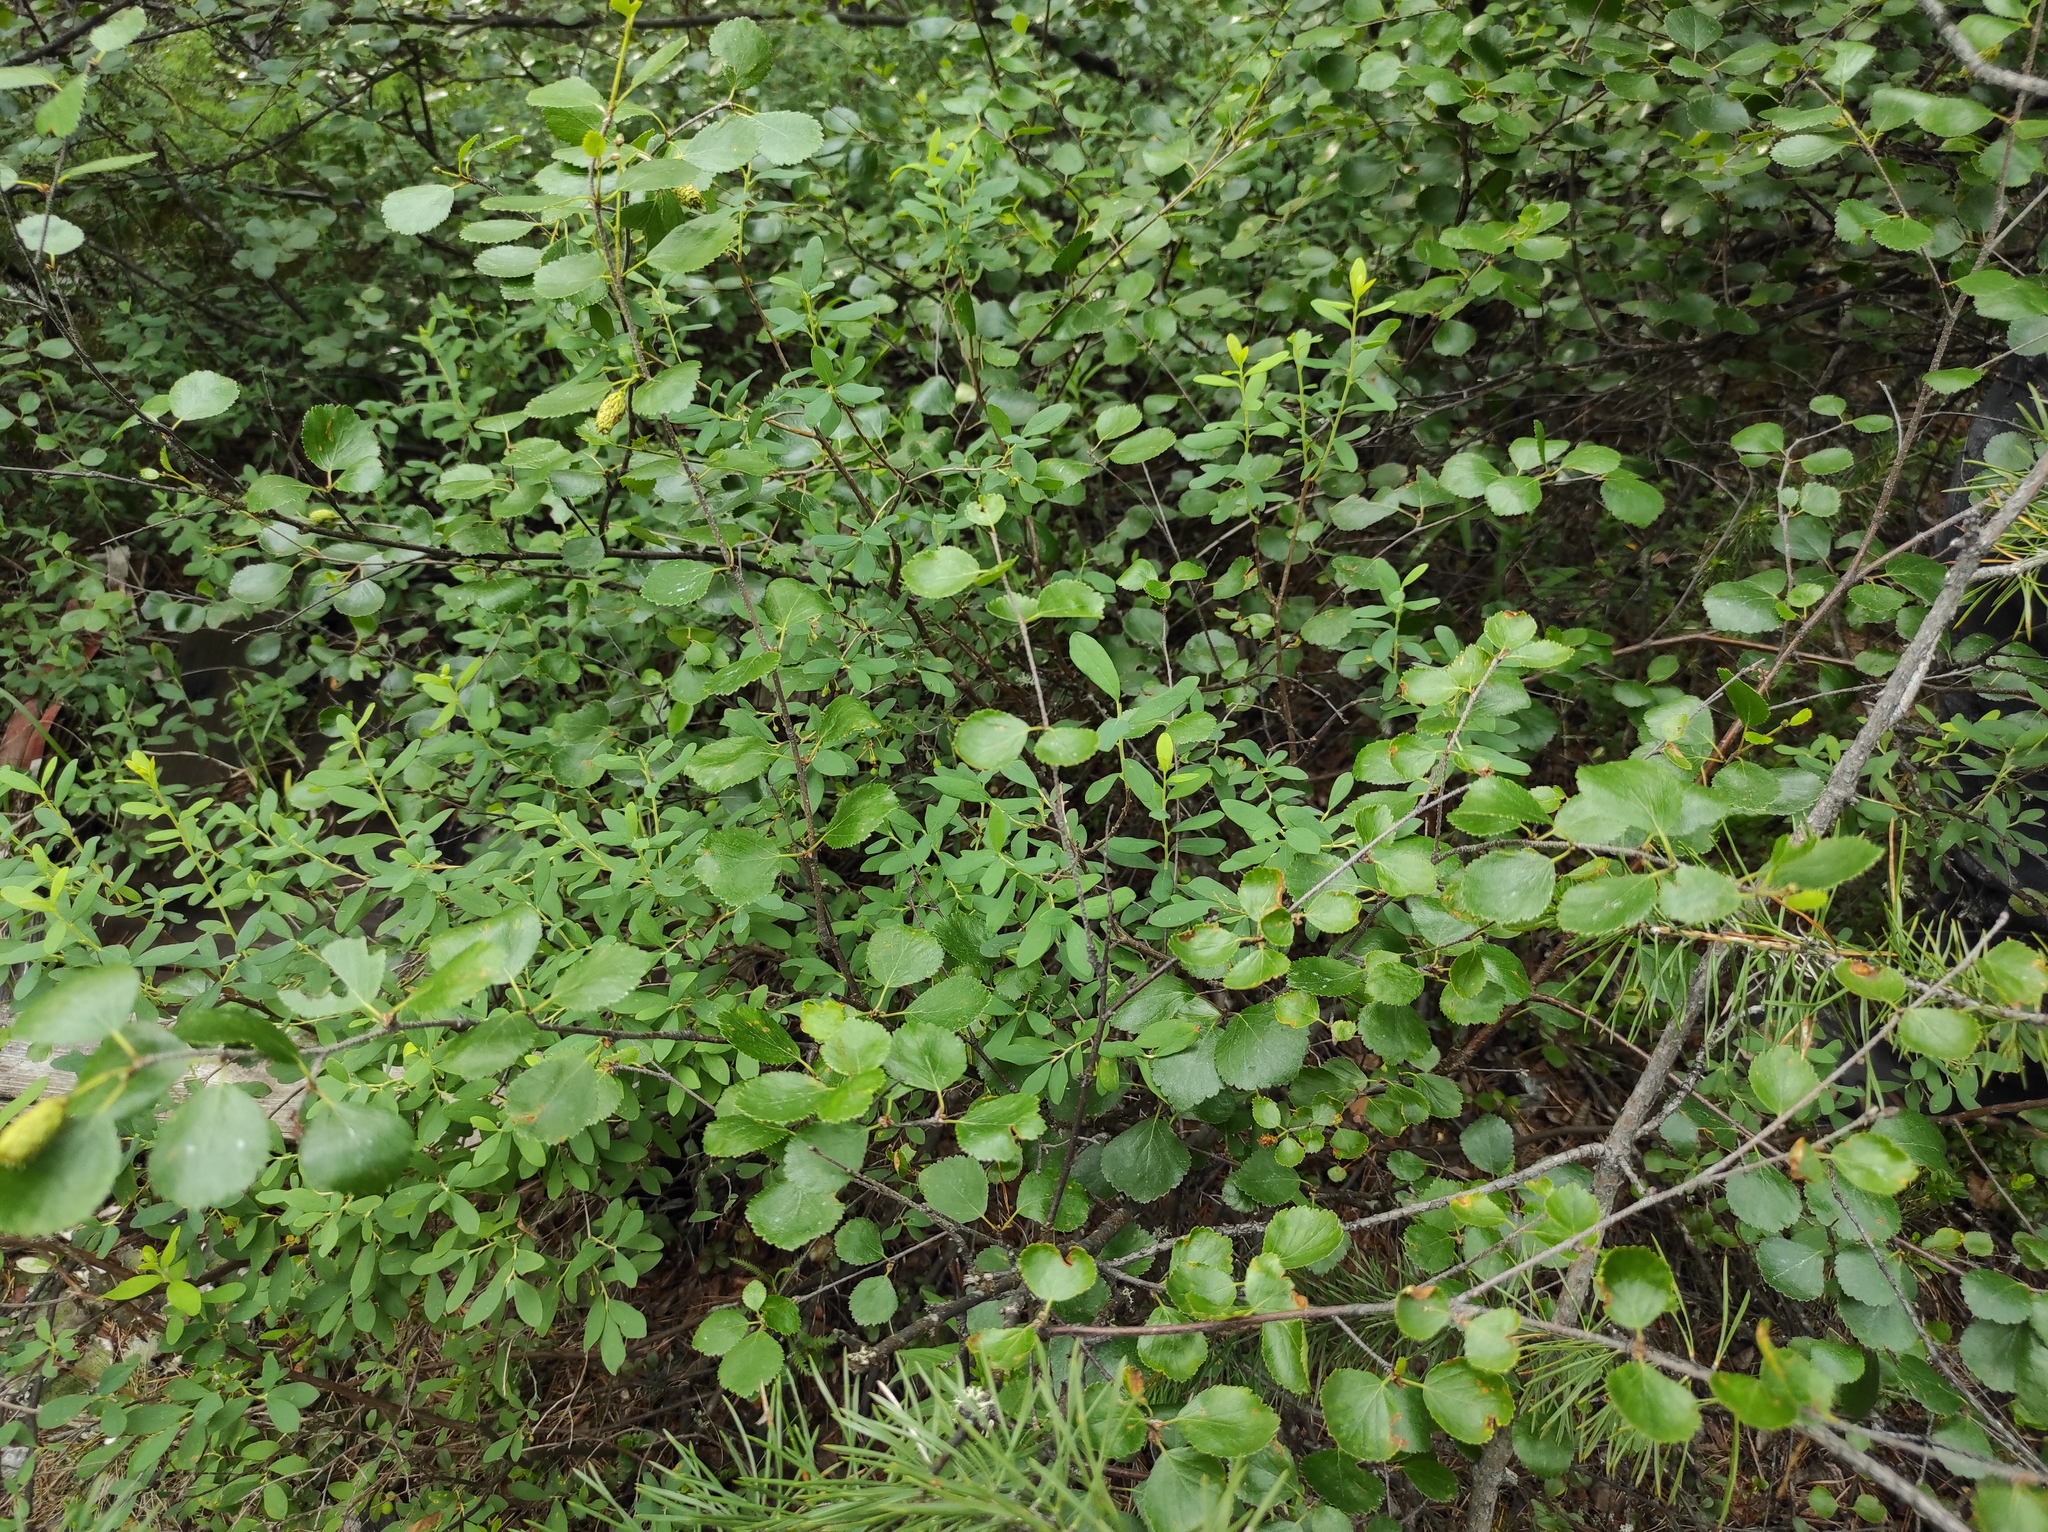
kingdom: Plantae
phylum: Tracheophyta
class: Magnoliopsida
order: Ericales
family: Ericaceae
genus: Vaccinium
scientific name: Vaccinium uliginosum
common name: Bog bilberry
